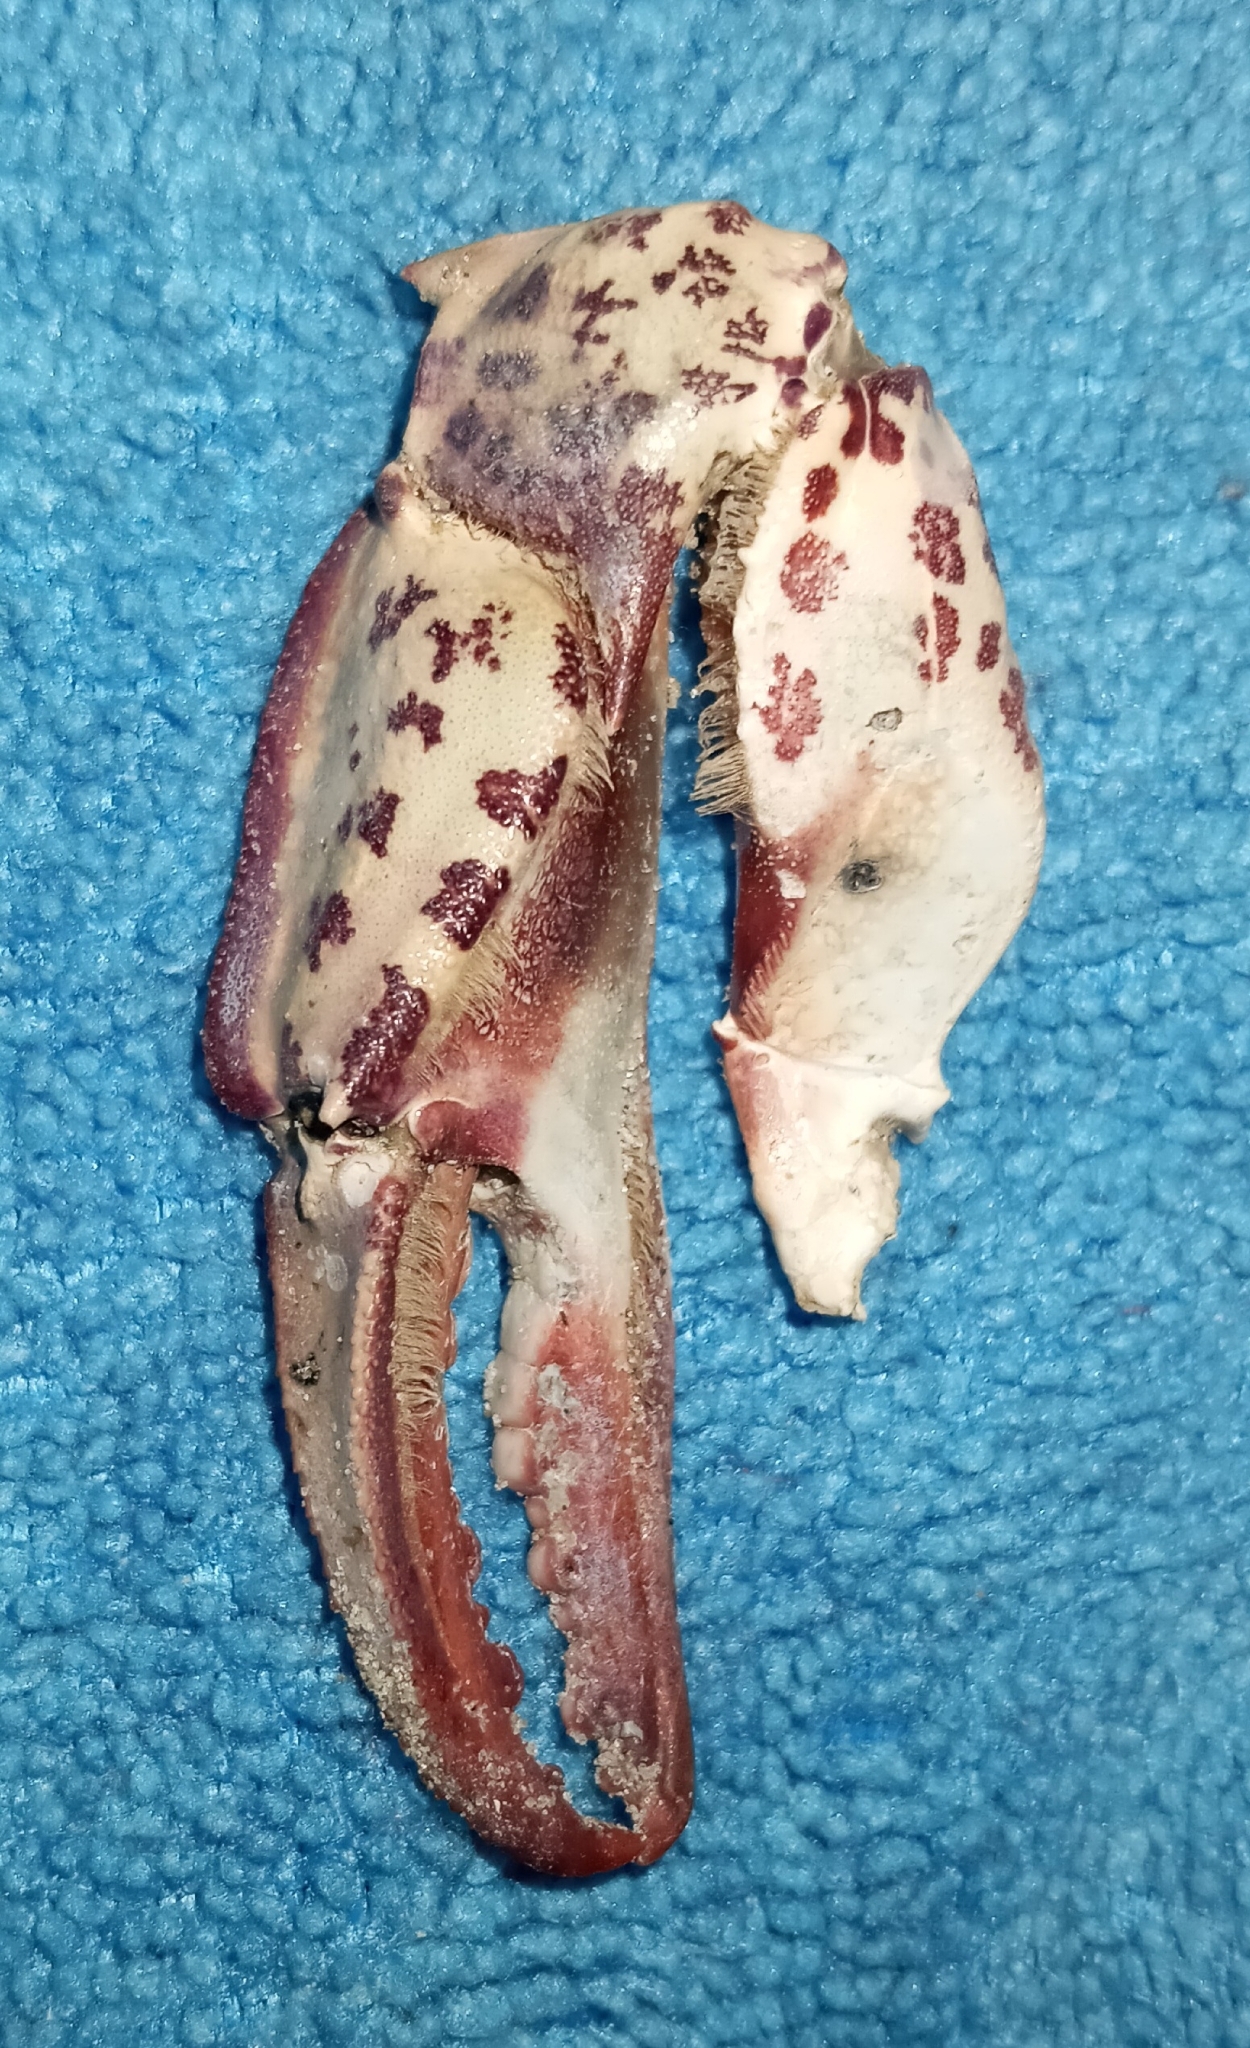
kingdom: Animalia
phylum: Arthropoda
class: Malacostraca
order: Decapoda
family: Ovalipidae
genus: Ovalipes
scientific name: Ovalipes ocellatus
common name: Lady crab
